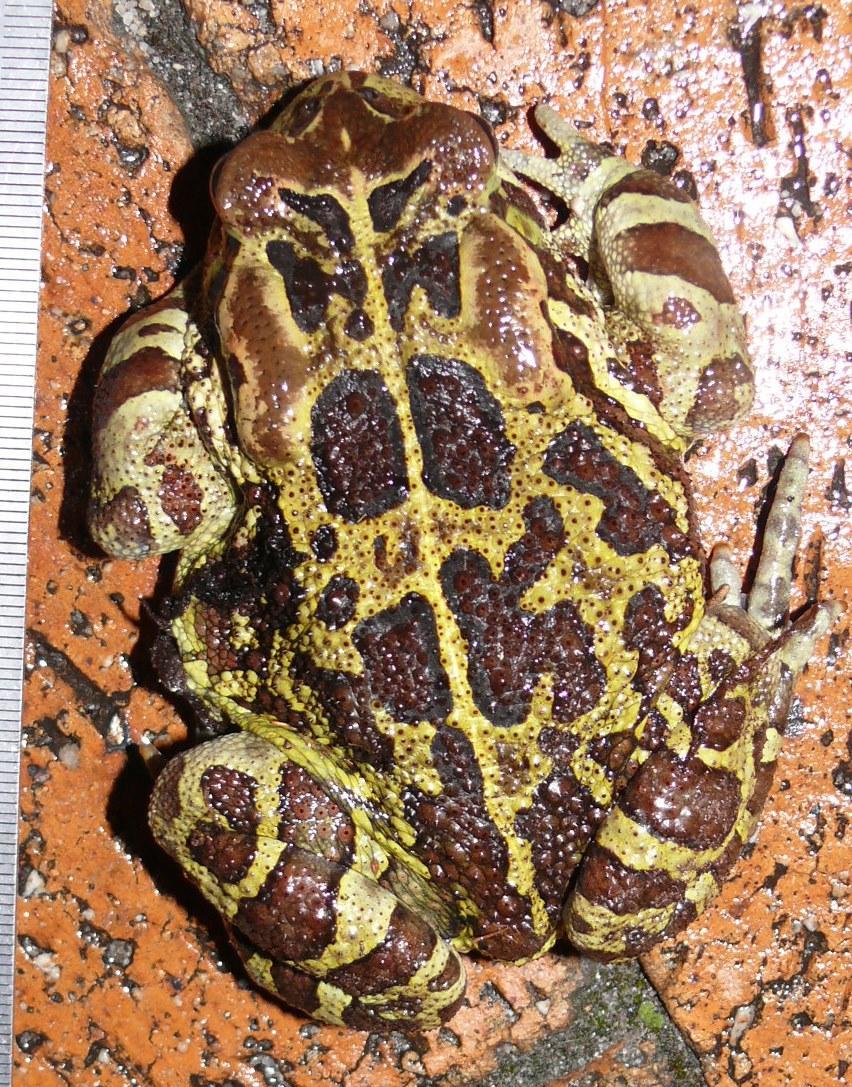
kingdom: Animalia
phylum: Chordata
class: Amphibia
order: Anura
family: Bufonidae
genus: Sclerophrys
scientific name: Sclerophrys pantherina
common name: Panther toad
